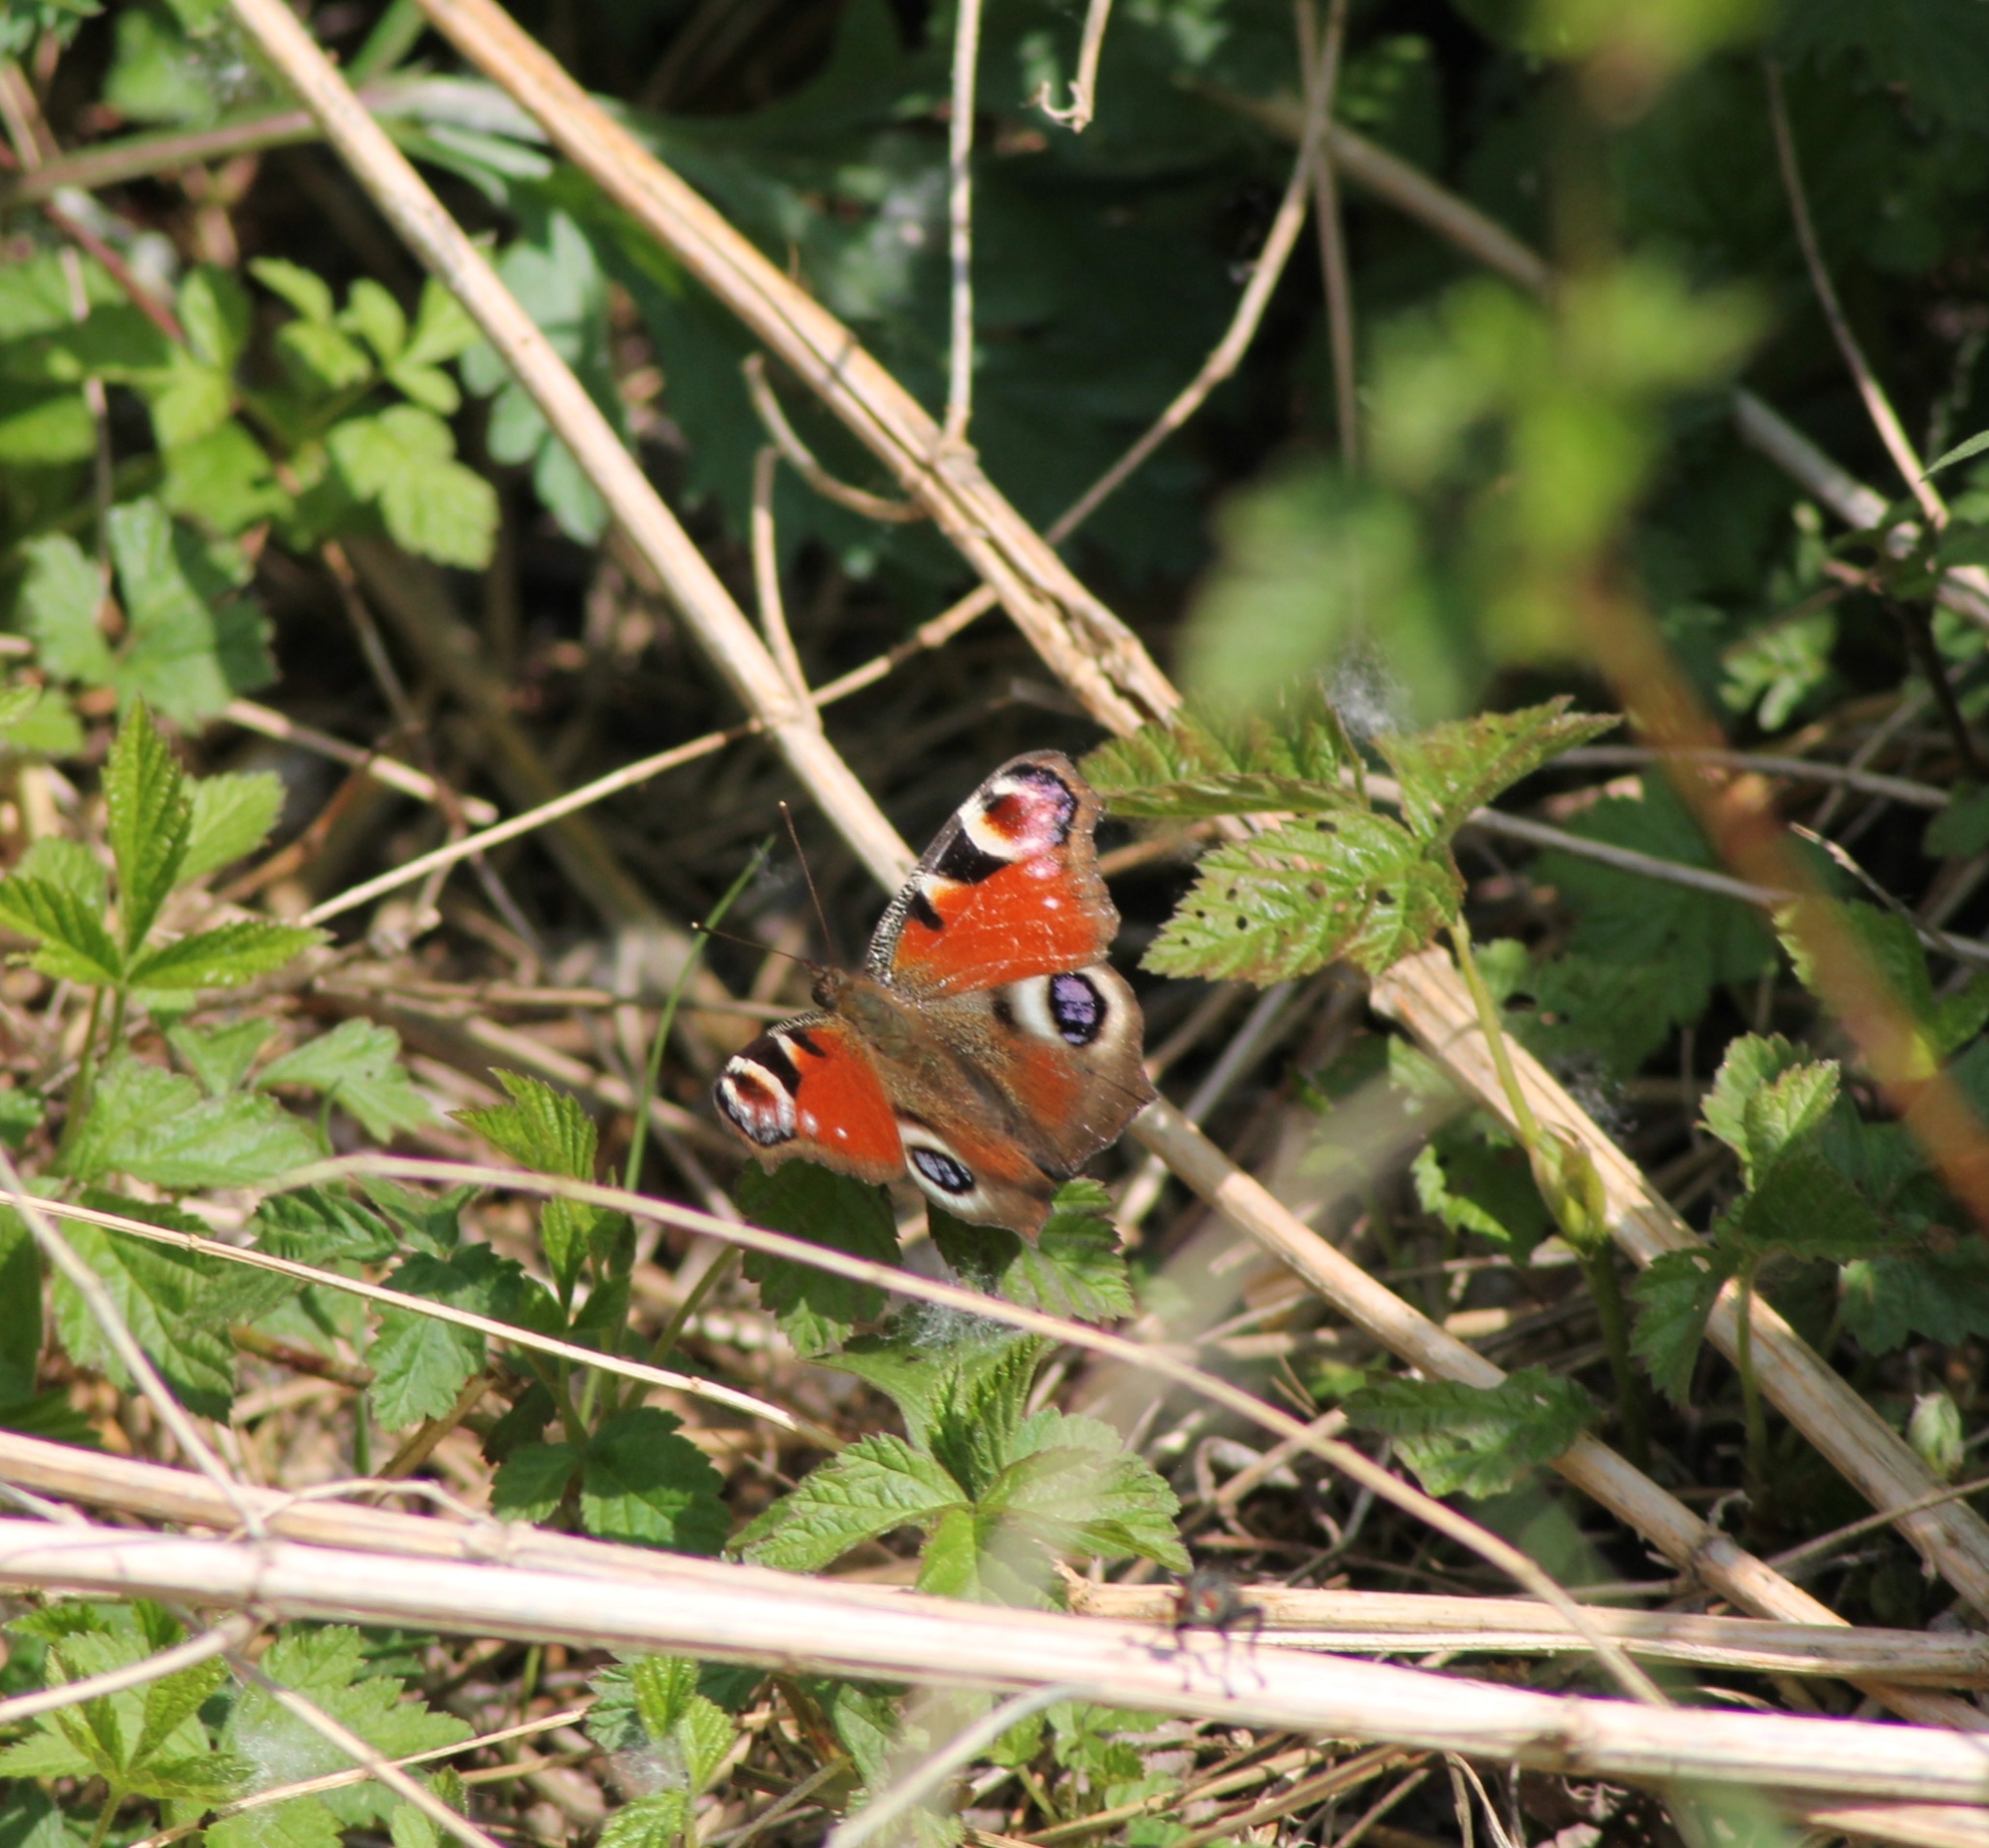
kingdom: Animalia
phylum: Arthropoda
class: Insecta
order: Lepidoptera
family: Nymphalidae
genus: Aglais
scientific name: Aglais io
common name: Peacock
